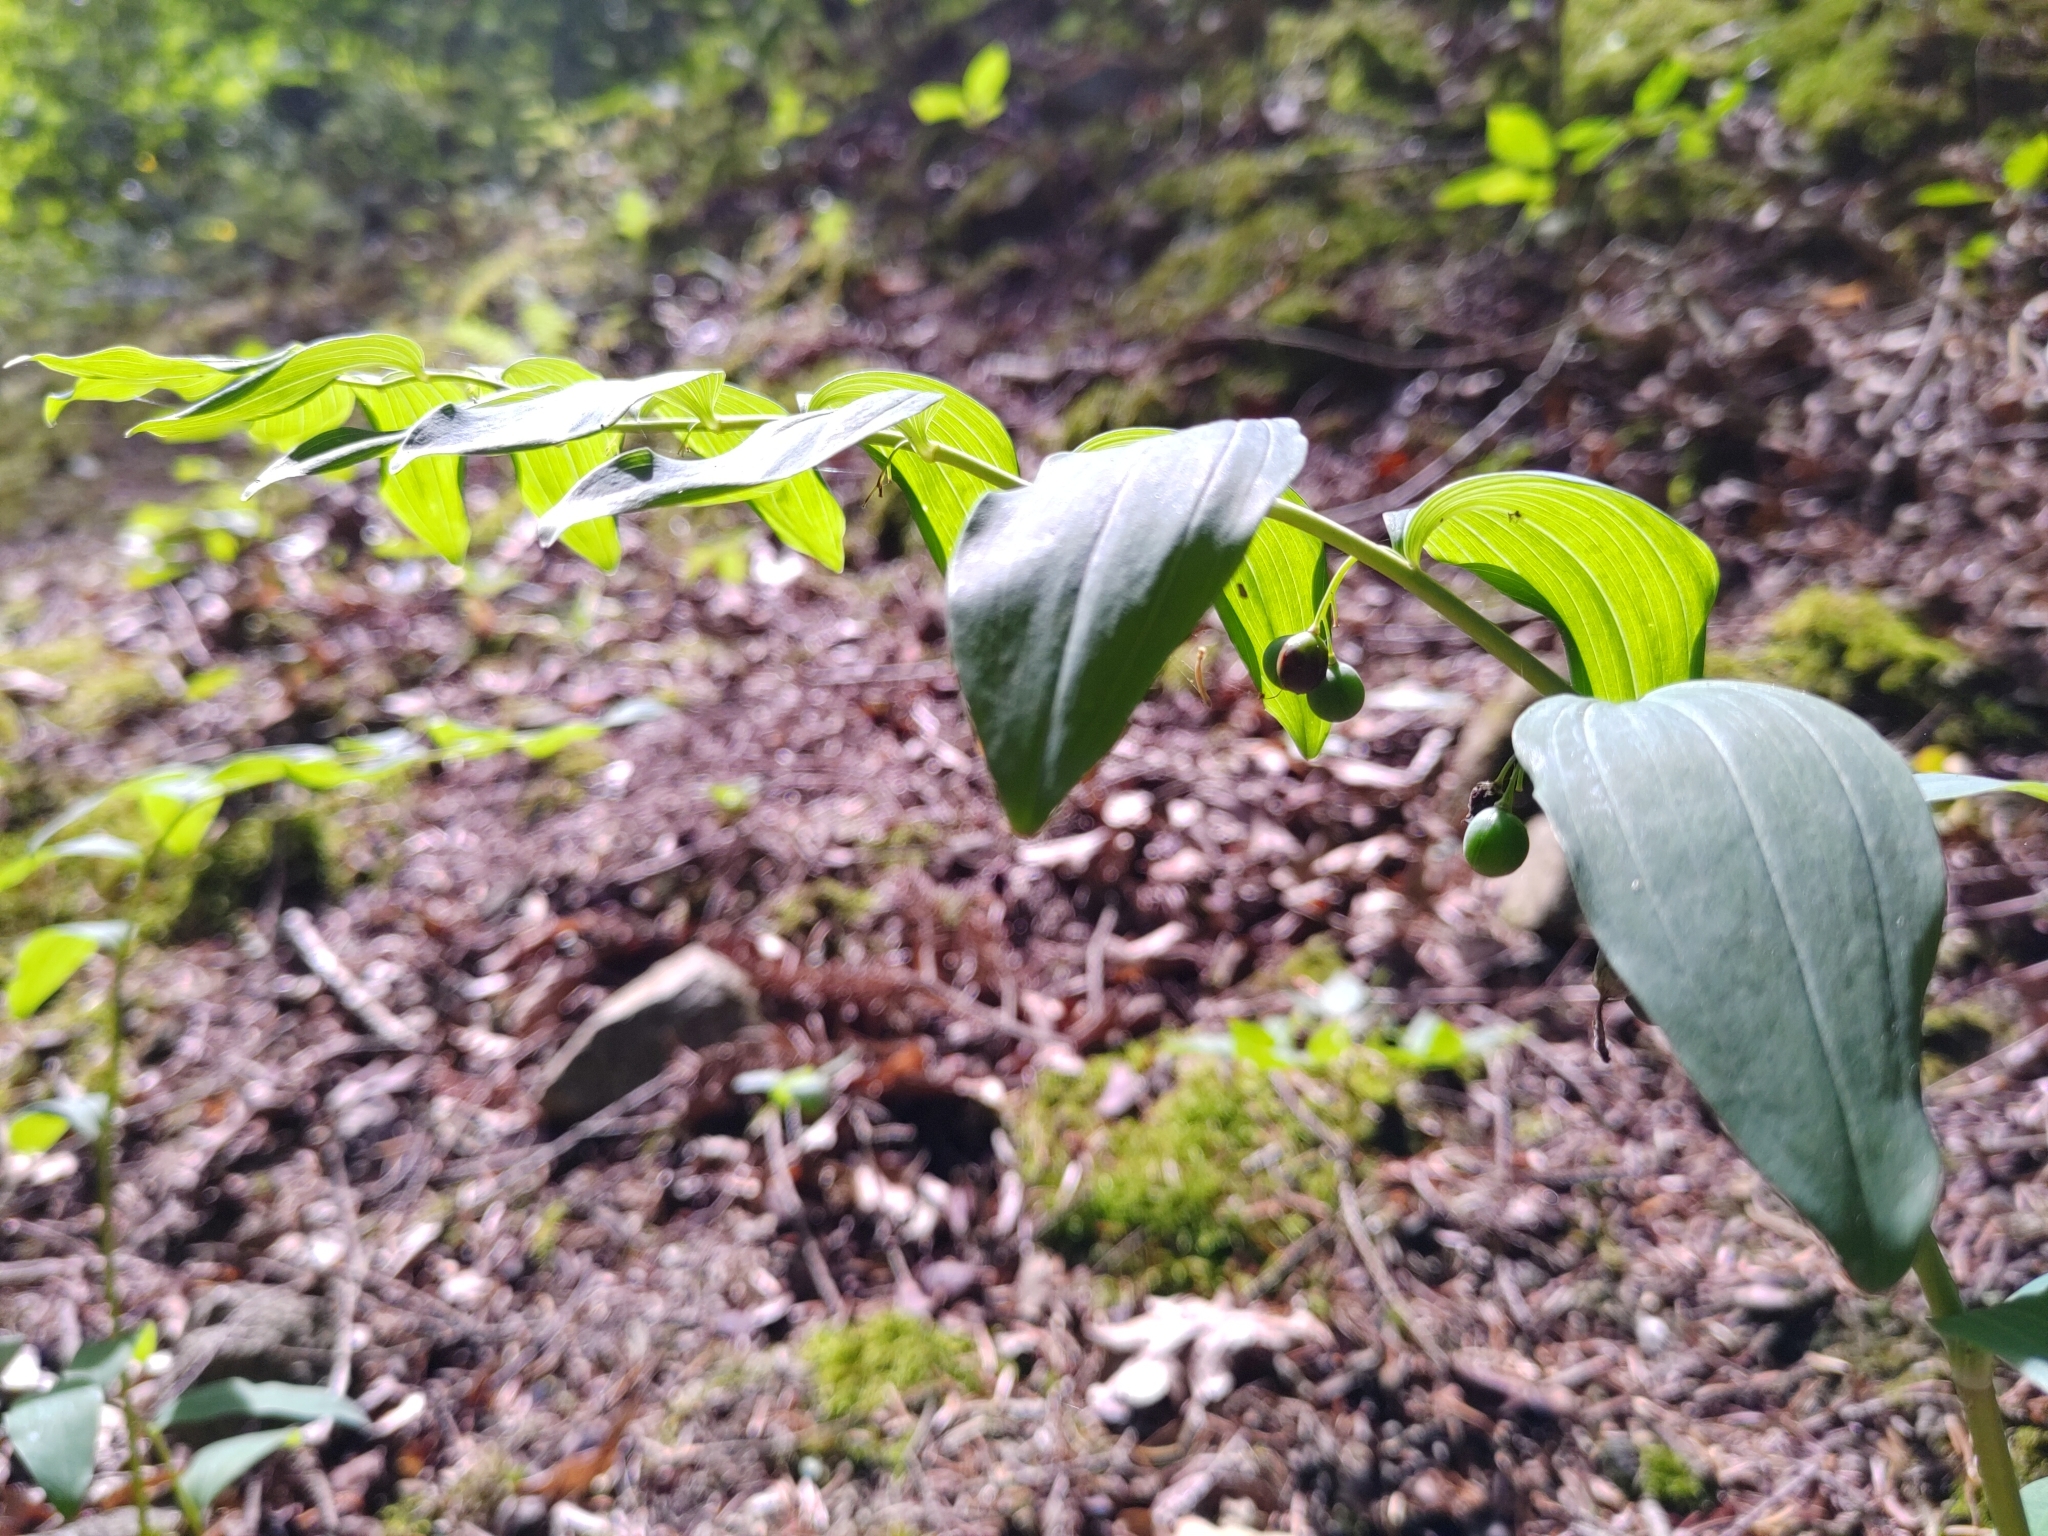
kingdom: Plantae
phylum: Tracheophyta
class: Liliopsida
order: Asparagales
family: Asparagaceae
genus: Polygonatum
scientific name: Polygonatum multiflorum
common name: Solomon's-seal
